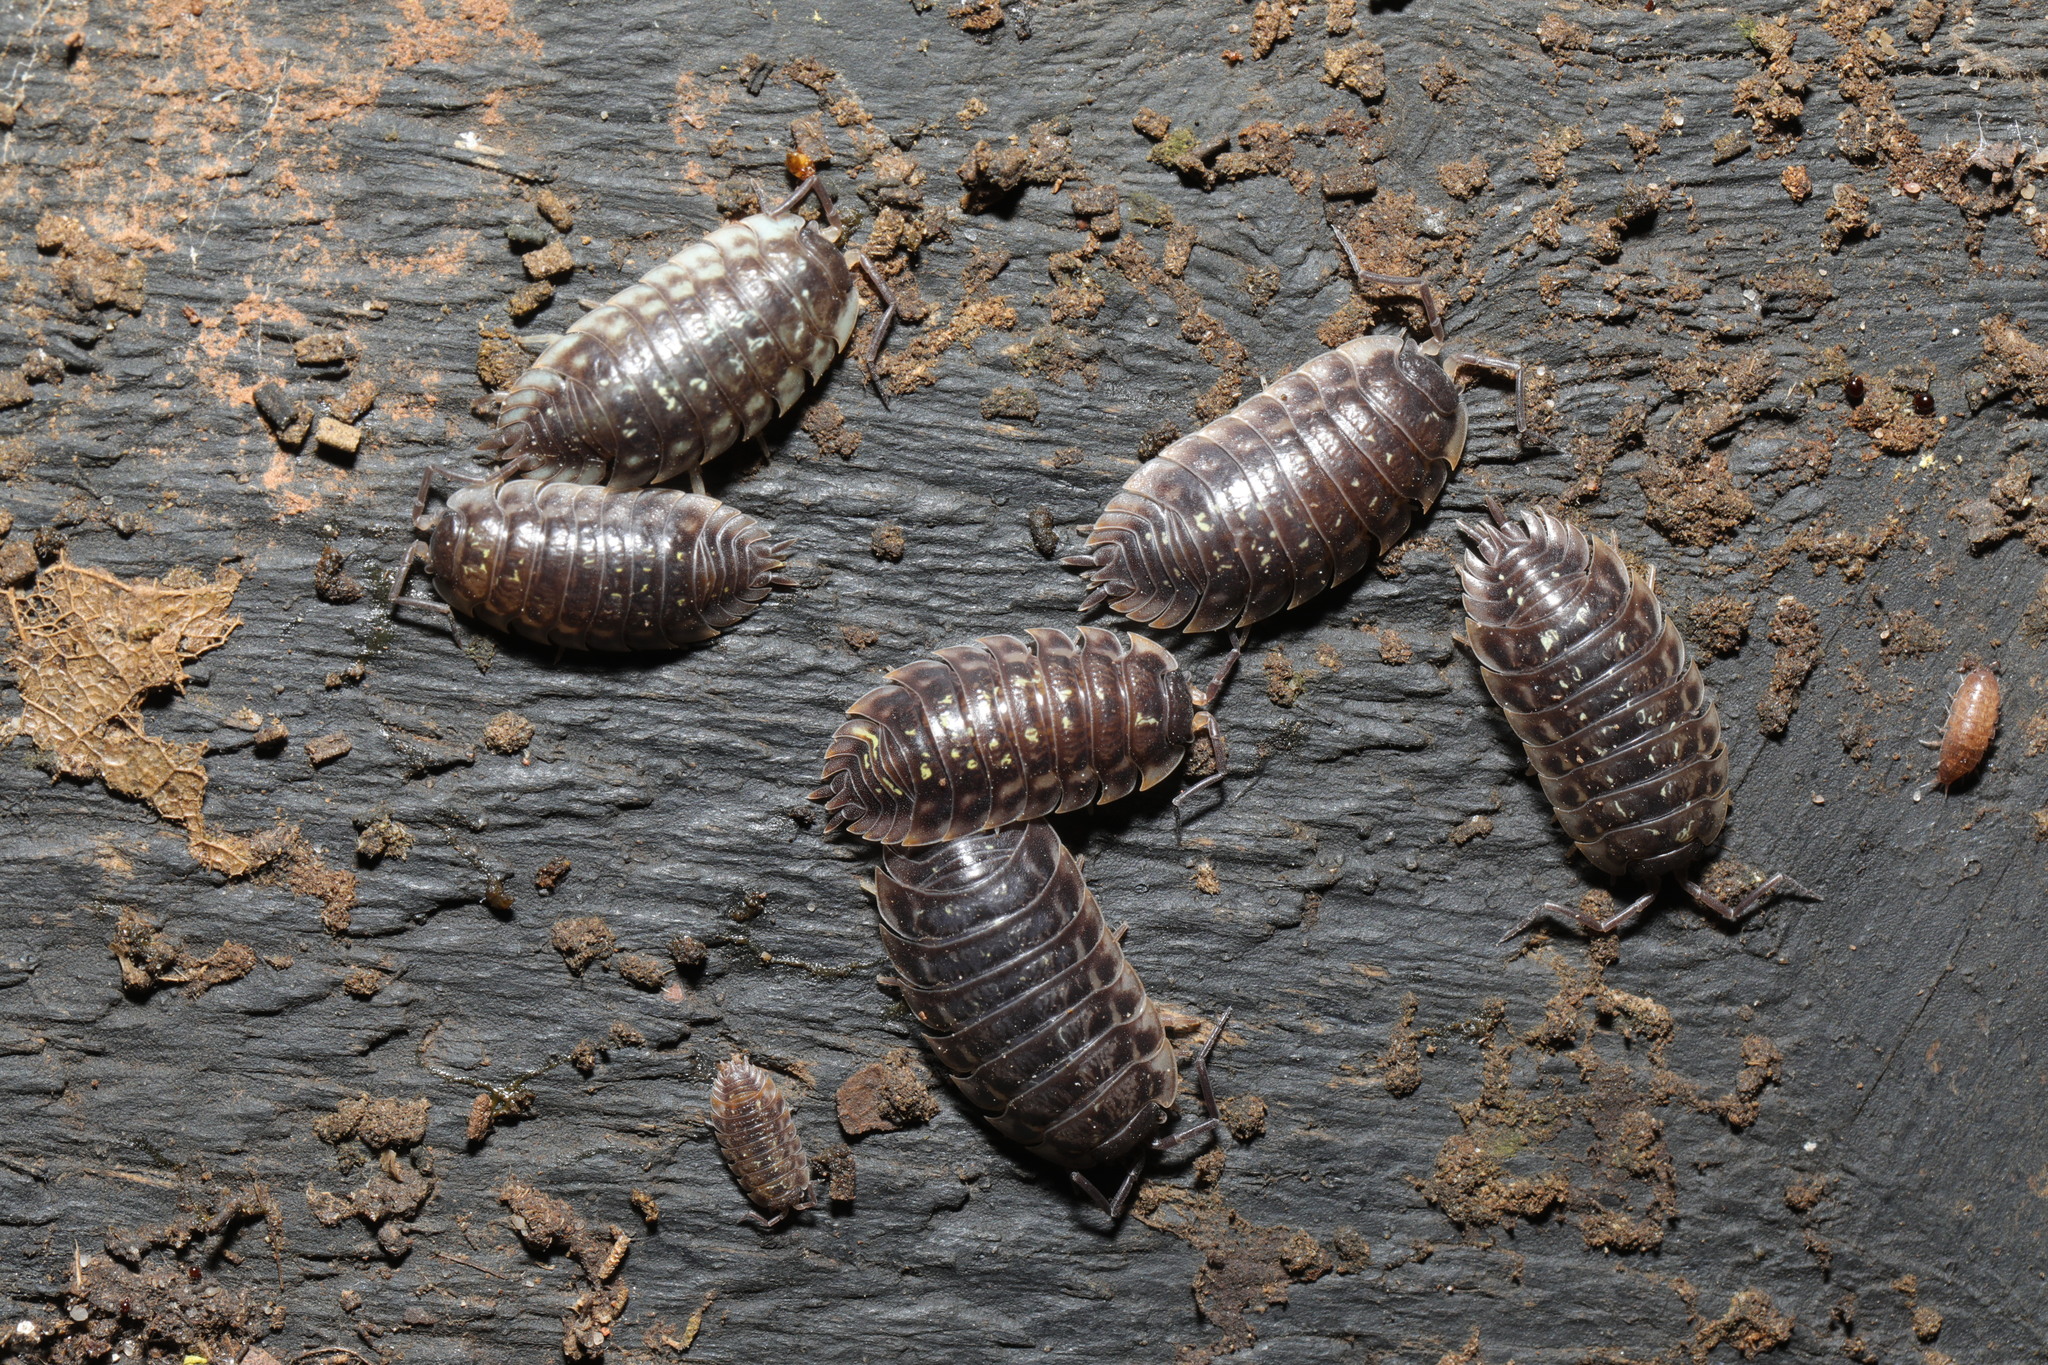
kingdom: Animalia
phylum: Arthropoda
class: Malacostraca
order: Isopoda
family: Oniscidae
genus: Oniscus
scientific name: Oniscus asellus
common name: Common shiny woodlouse
